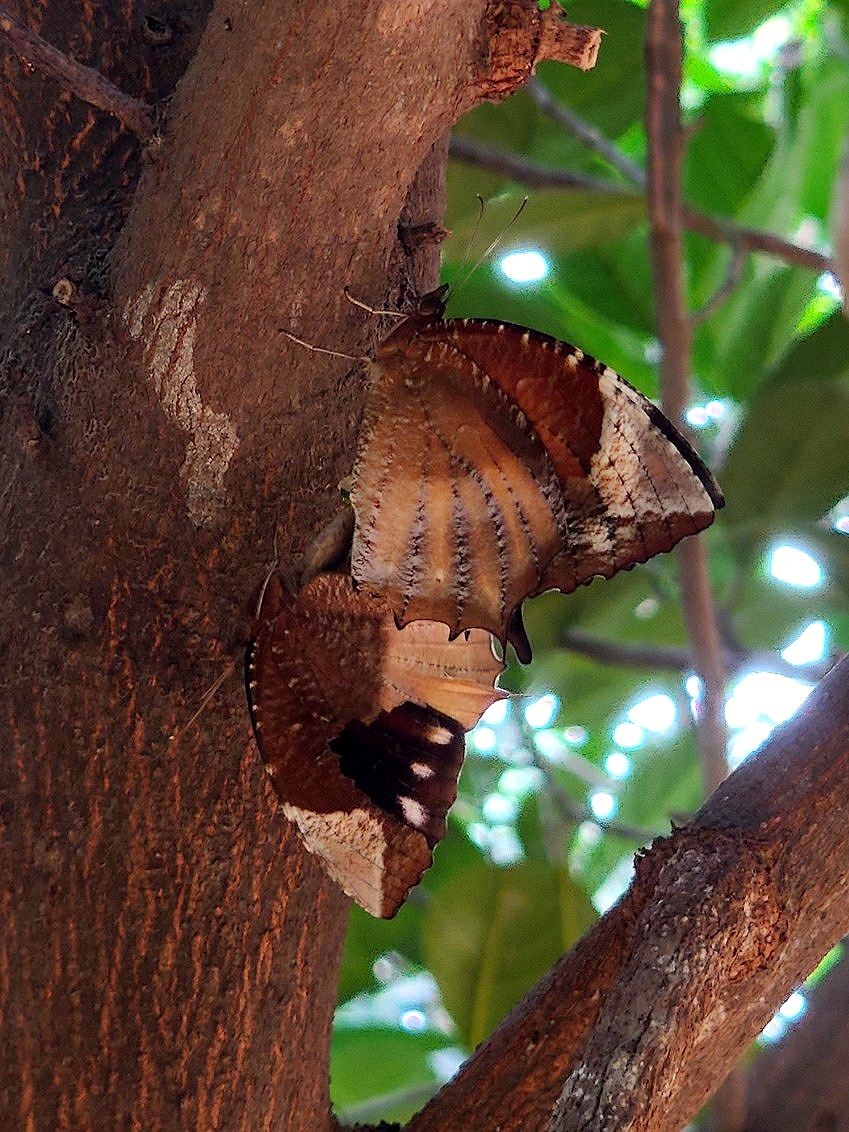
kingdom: Animalia
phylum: Arthropoda
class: Insecta
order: Lepidoptera
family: Nymphalidae
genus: Elymnias
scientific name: Elymnias caudata
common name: Tailed palmfly
